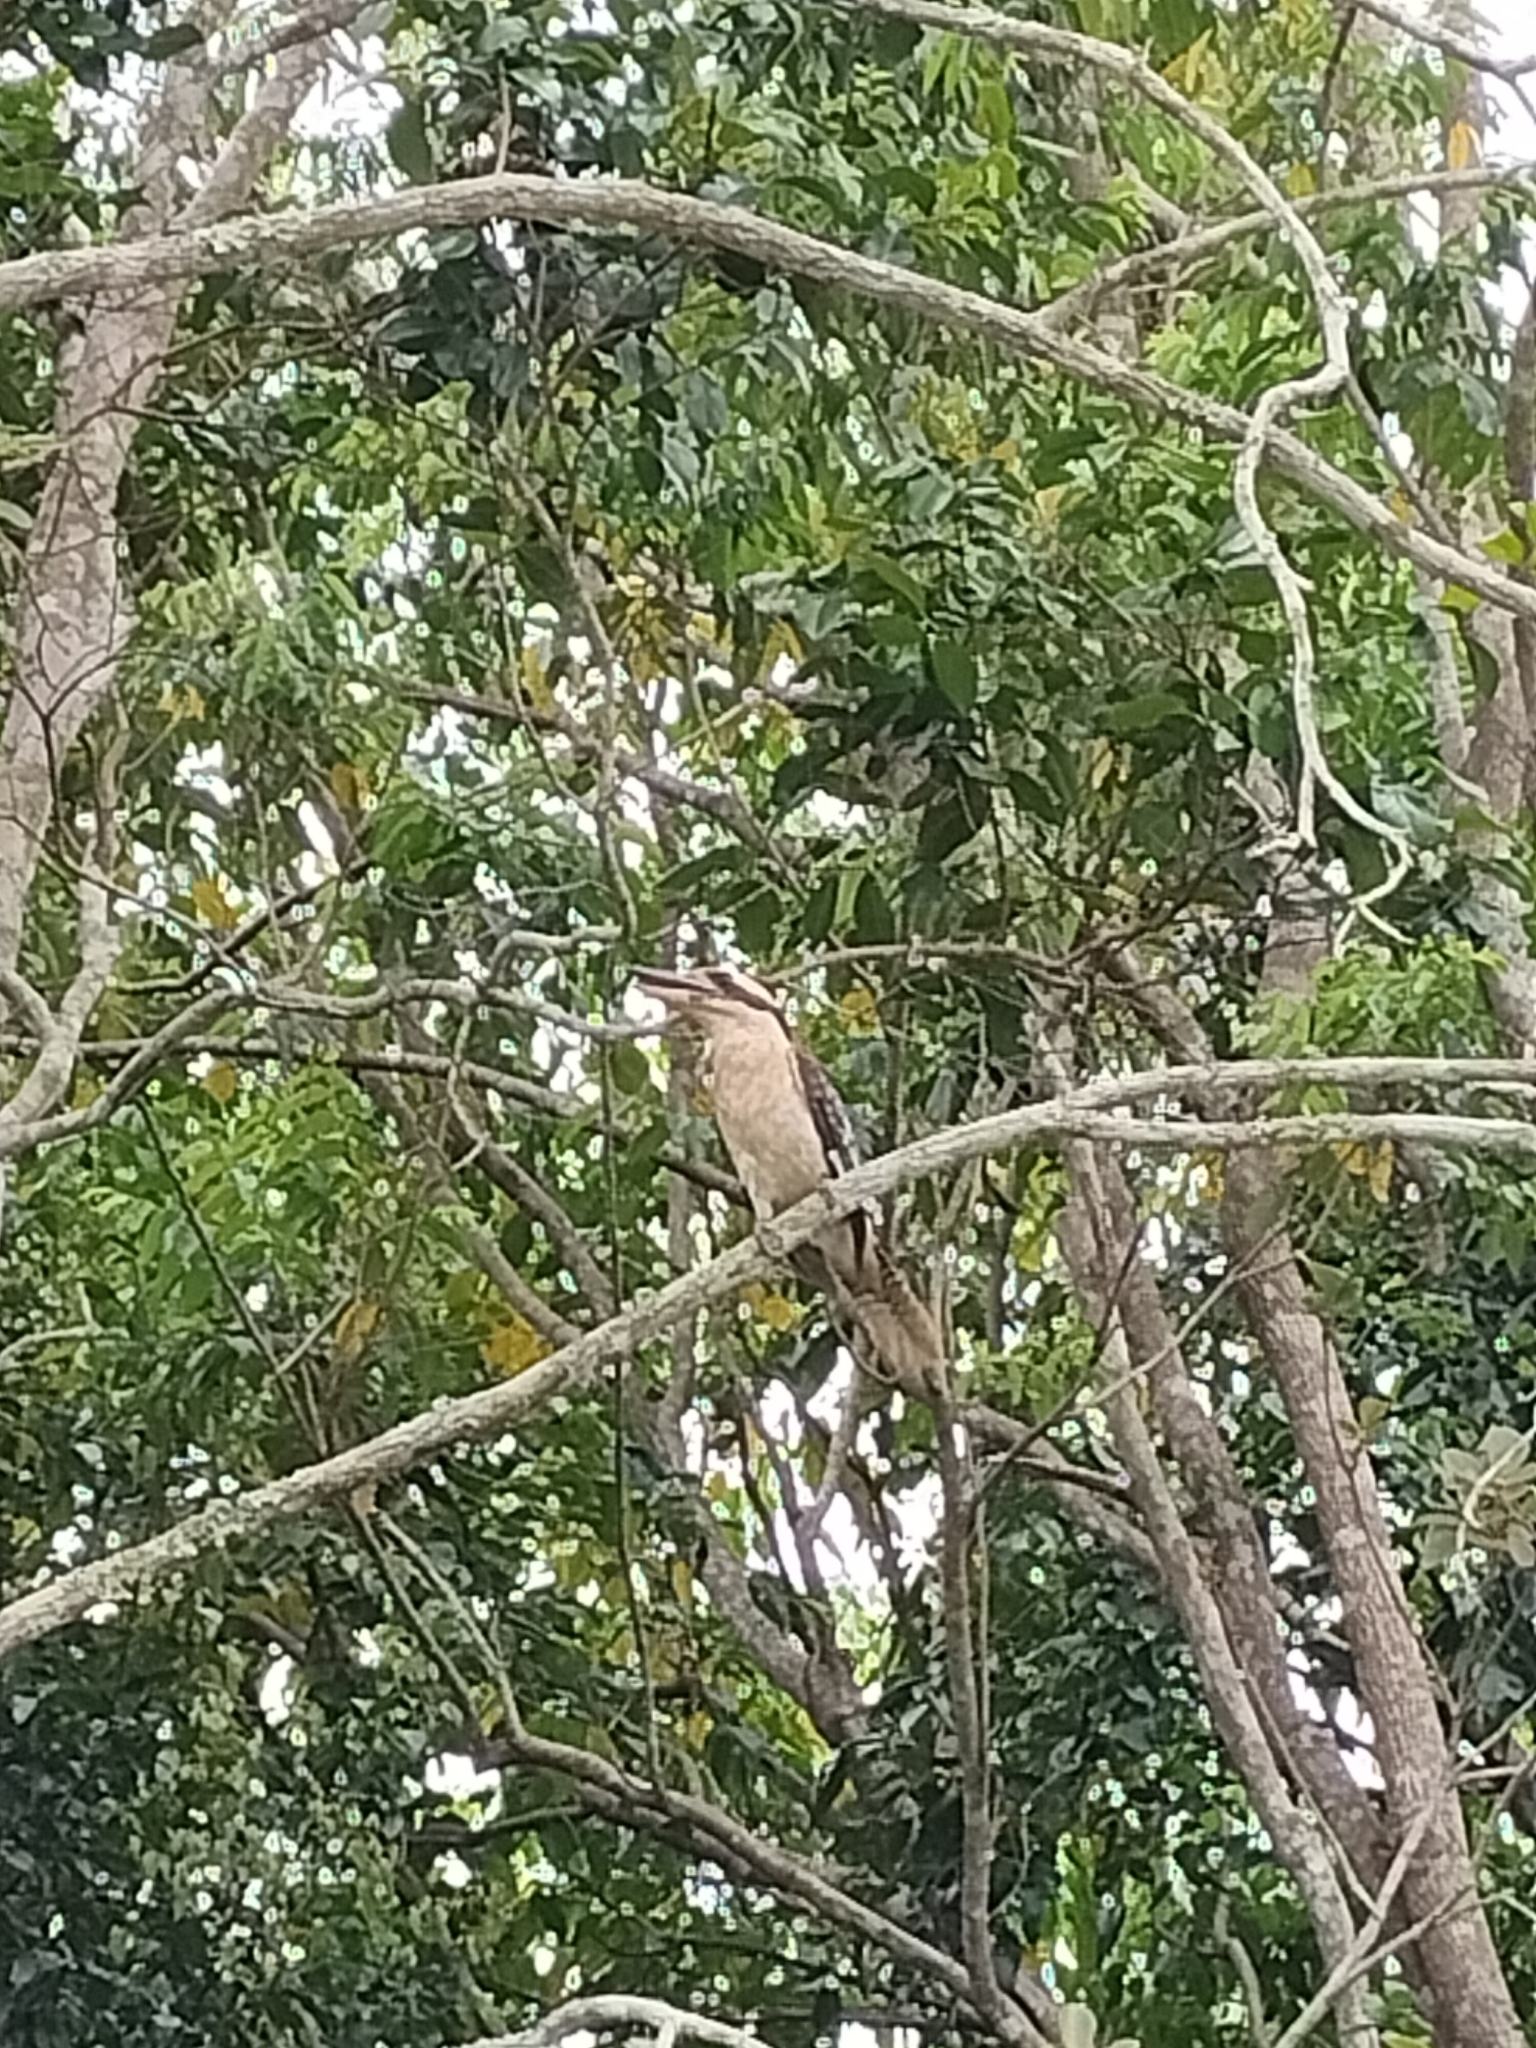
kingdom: Animalia
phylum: Chordata
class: Aves
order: Coraciiformes
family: Alcedinidae
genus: Dacelo
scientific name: Dacelo novaeguineae
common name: Laughing kookaburra
